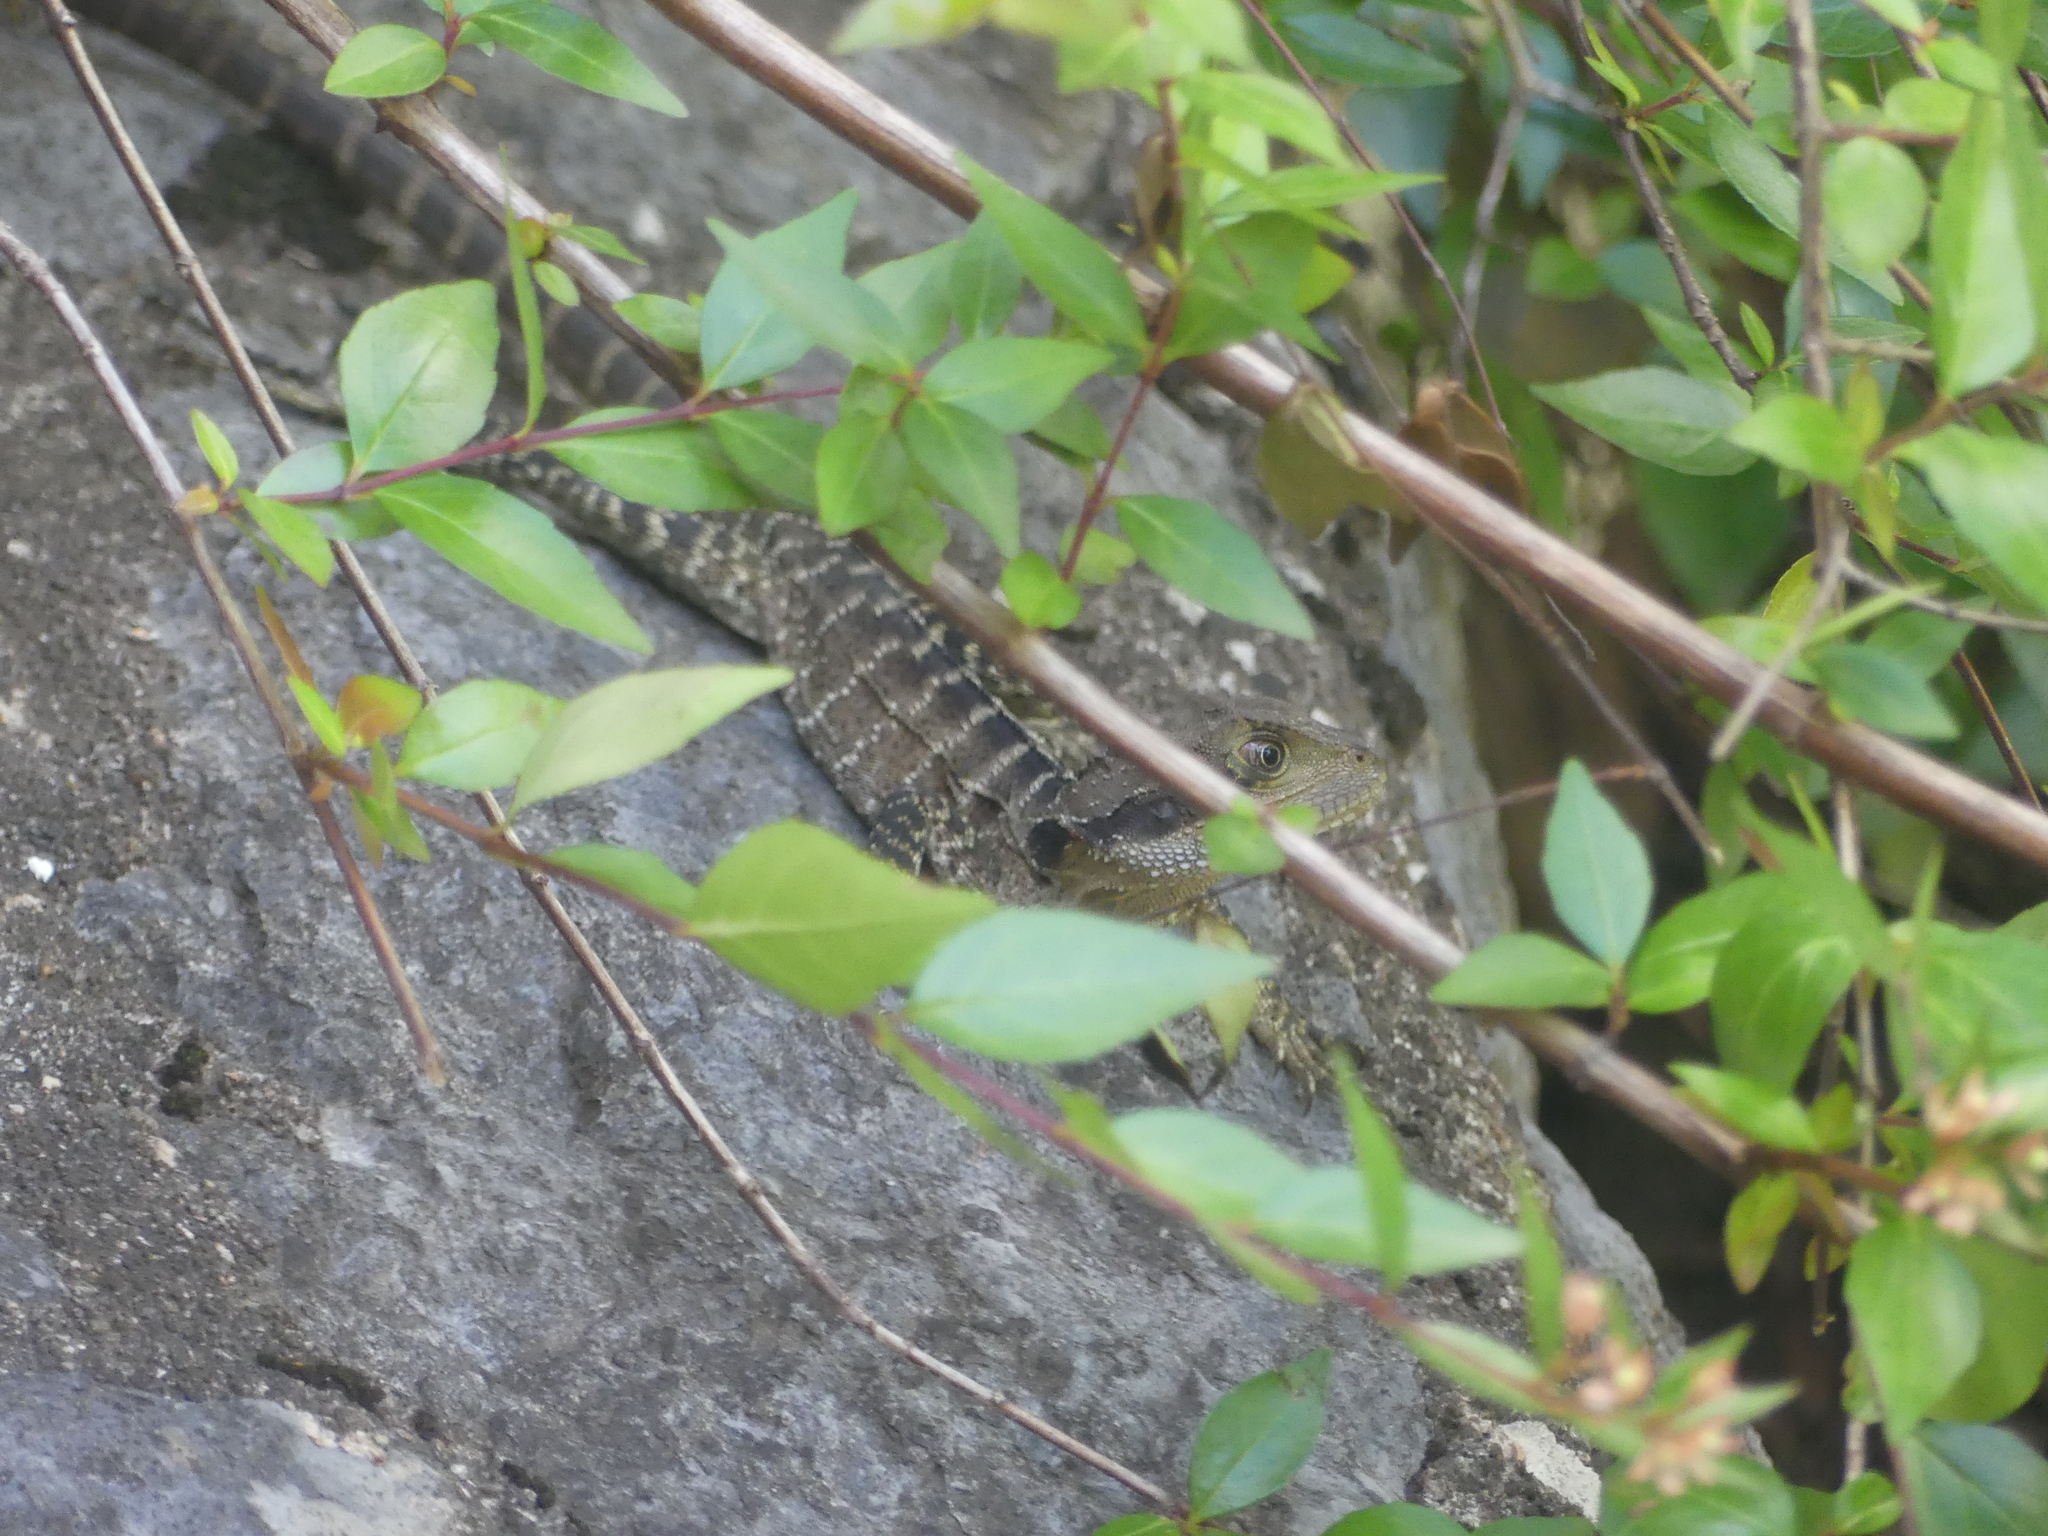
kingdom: Animalia
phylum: Chordata
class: Squamata
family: Agamidae
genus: Intellagama
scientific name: Intellagama lesueurii
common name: Eastern water dragon
